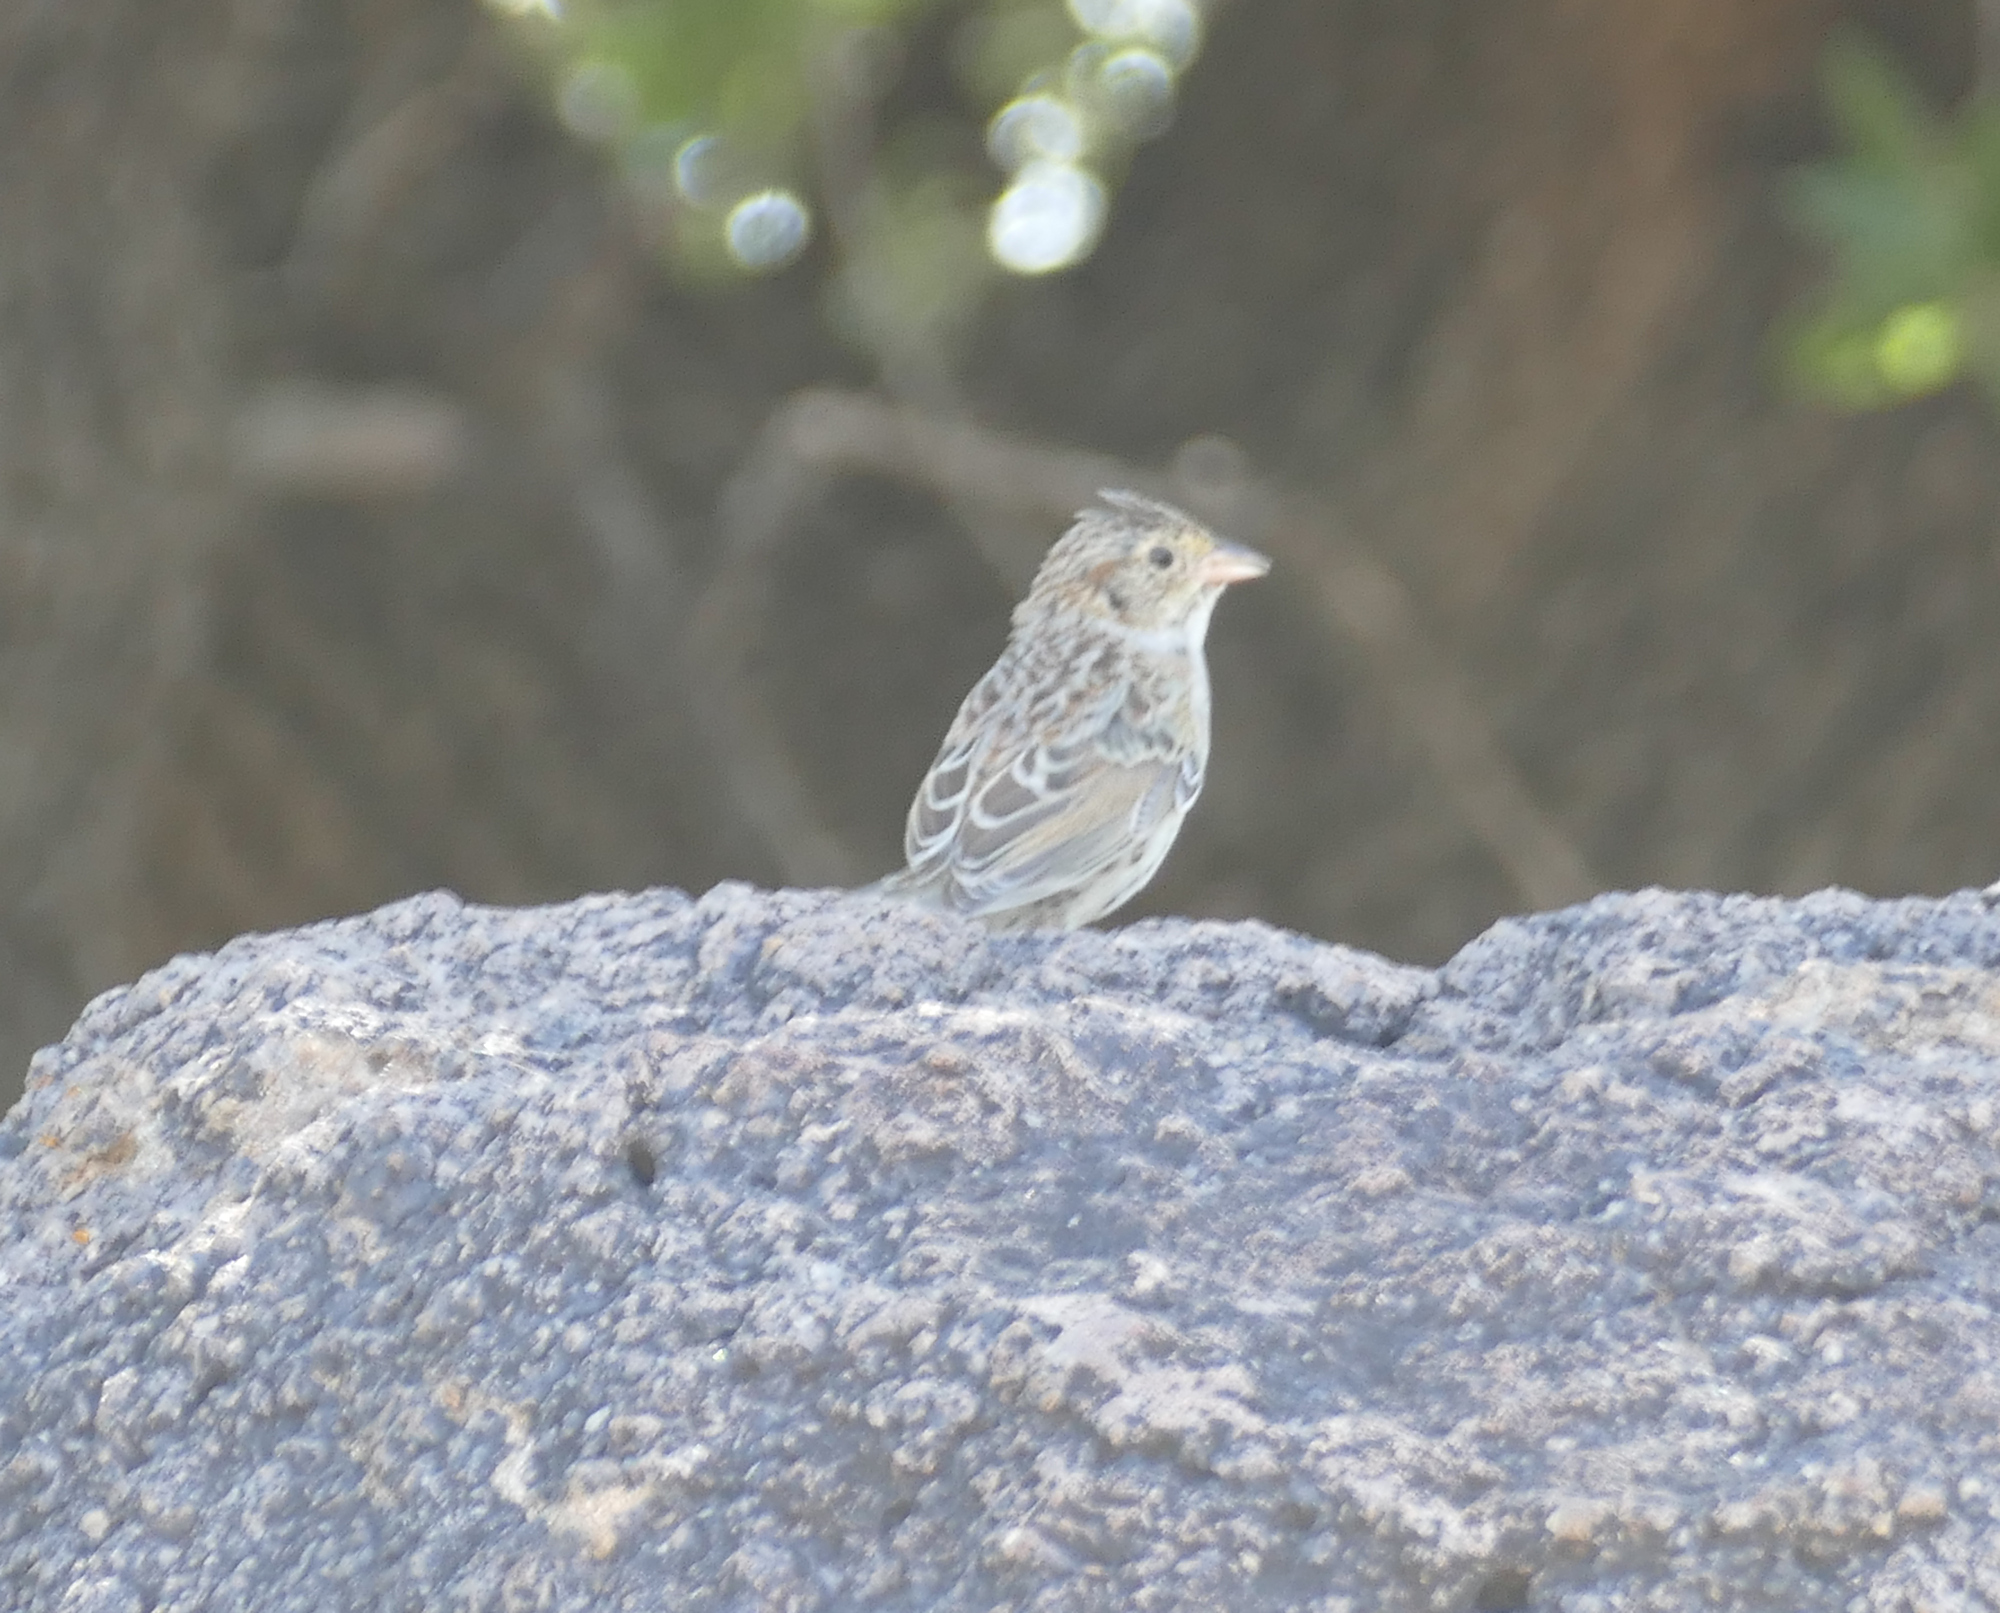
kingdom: Animalia
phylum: Chordata
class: Aves
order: Passeriformes
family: Passerellidae
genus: Peucaea
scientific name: Peucaea cassinii
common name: Cassin's sparrow
